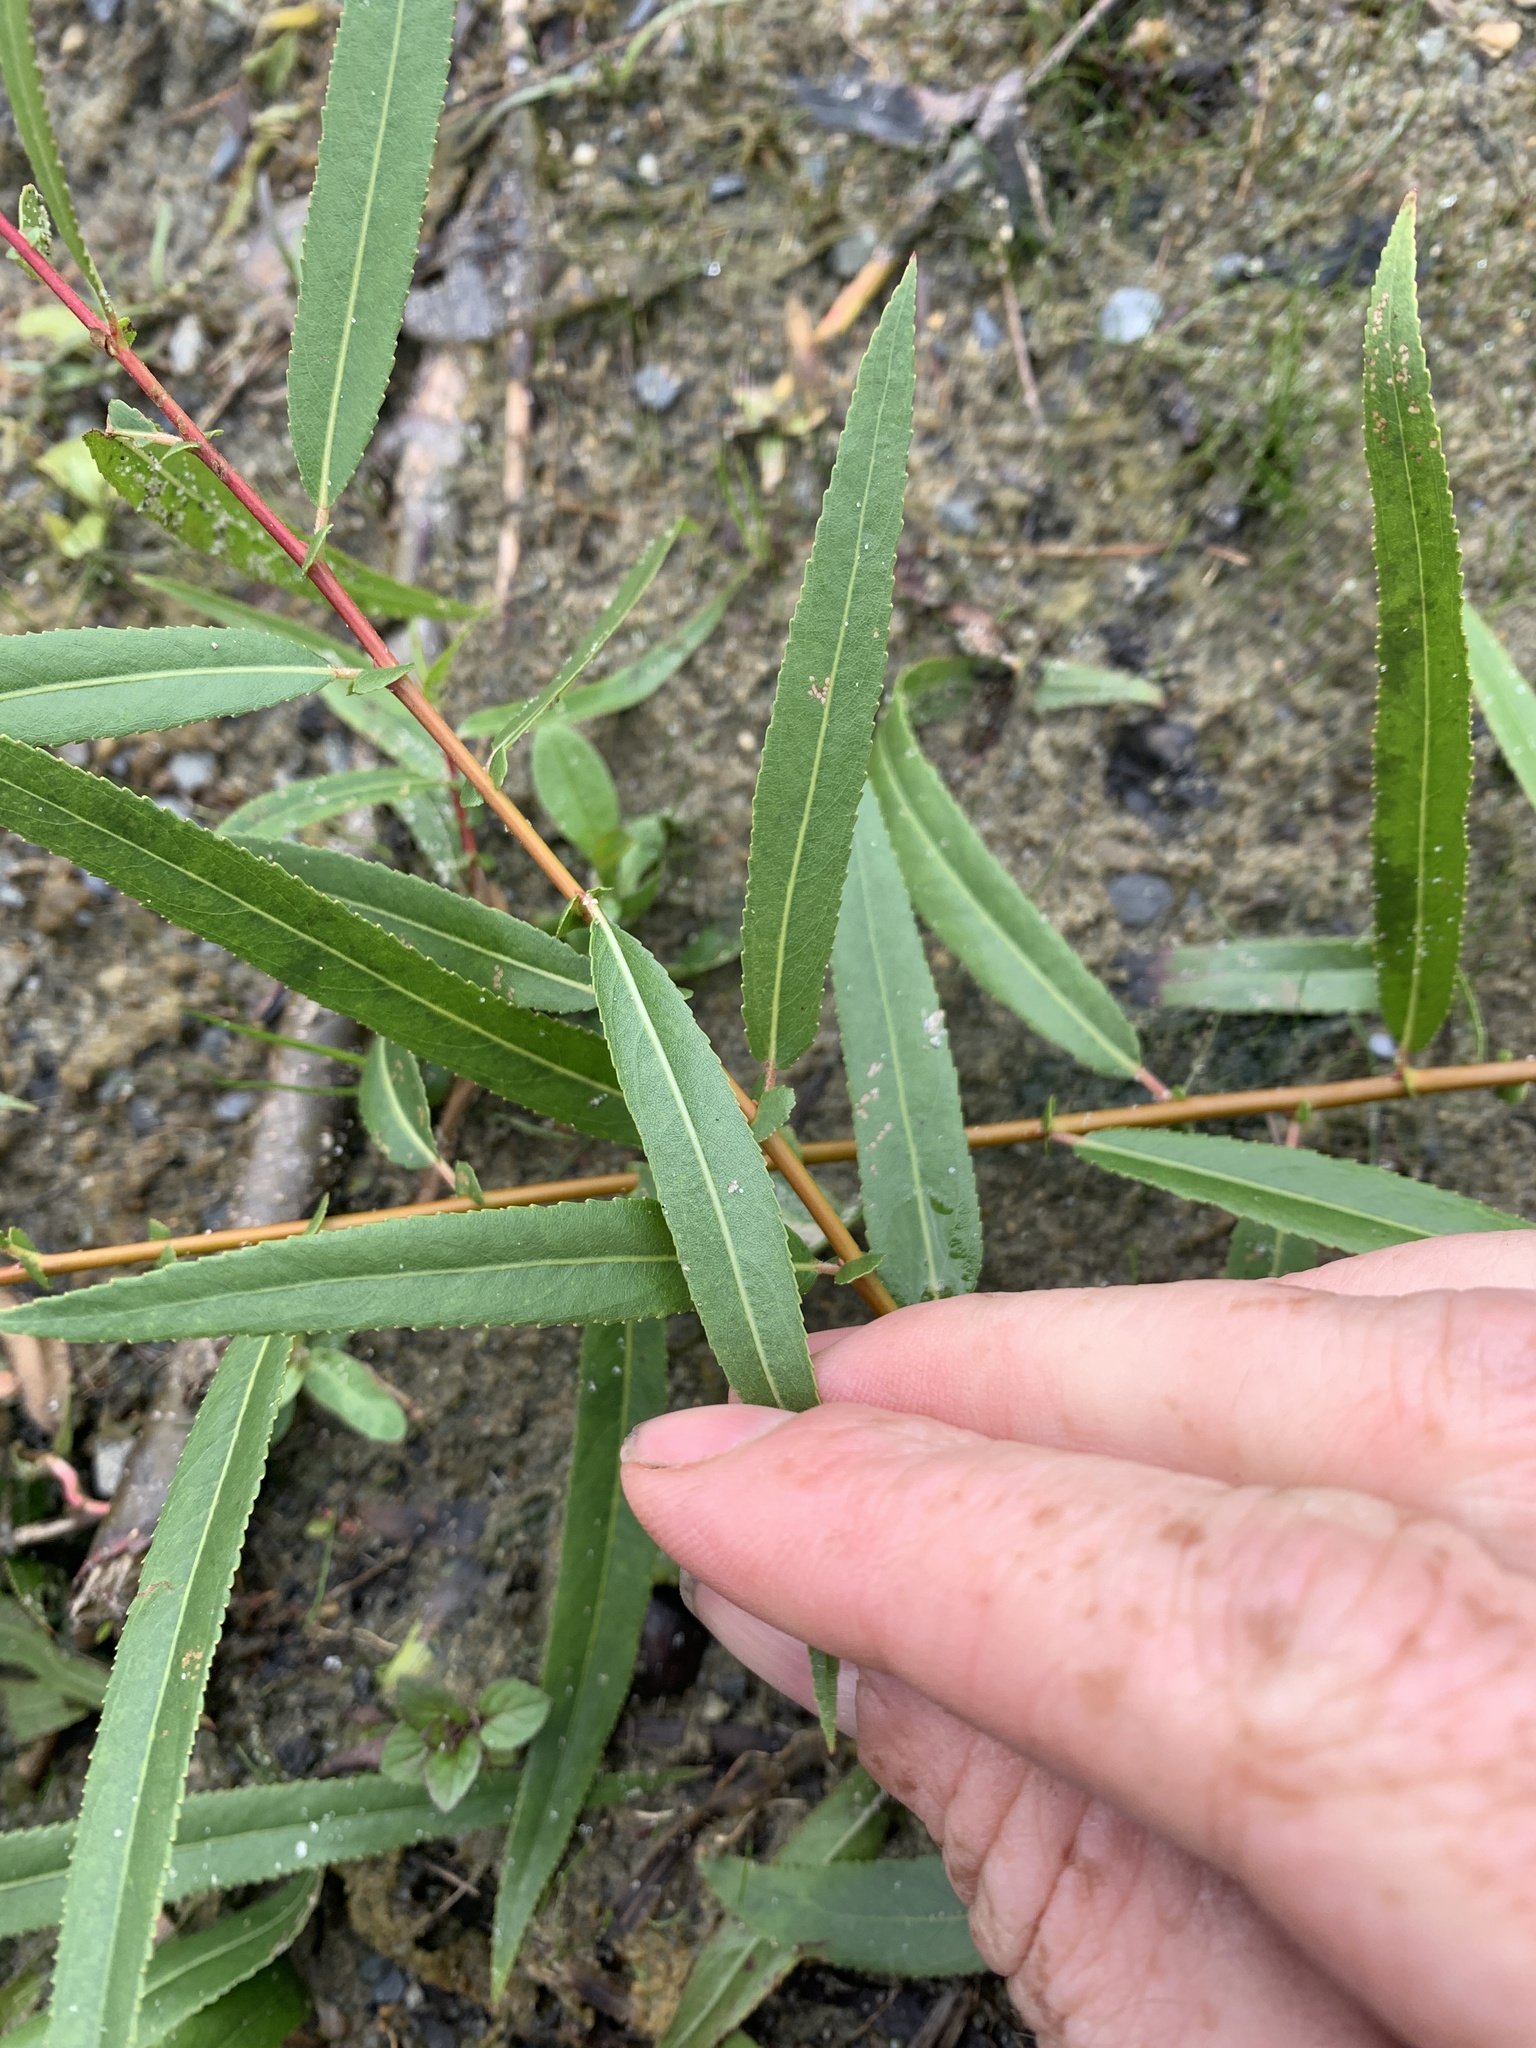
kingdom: Plantae
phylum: Tracheophyta
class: Magnoliopsida
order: Malpighiales
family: Salicaceae
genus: Salix
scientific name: Salix nigra
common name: Black willow
